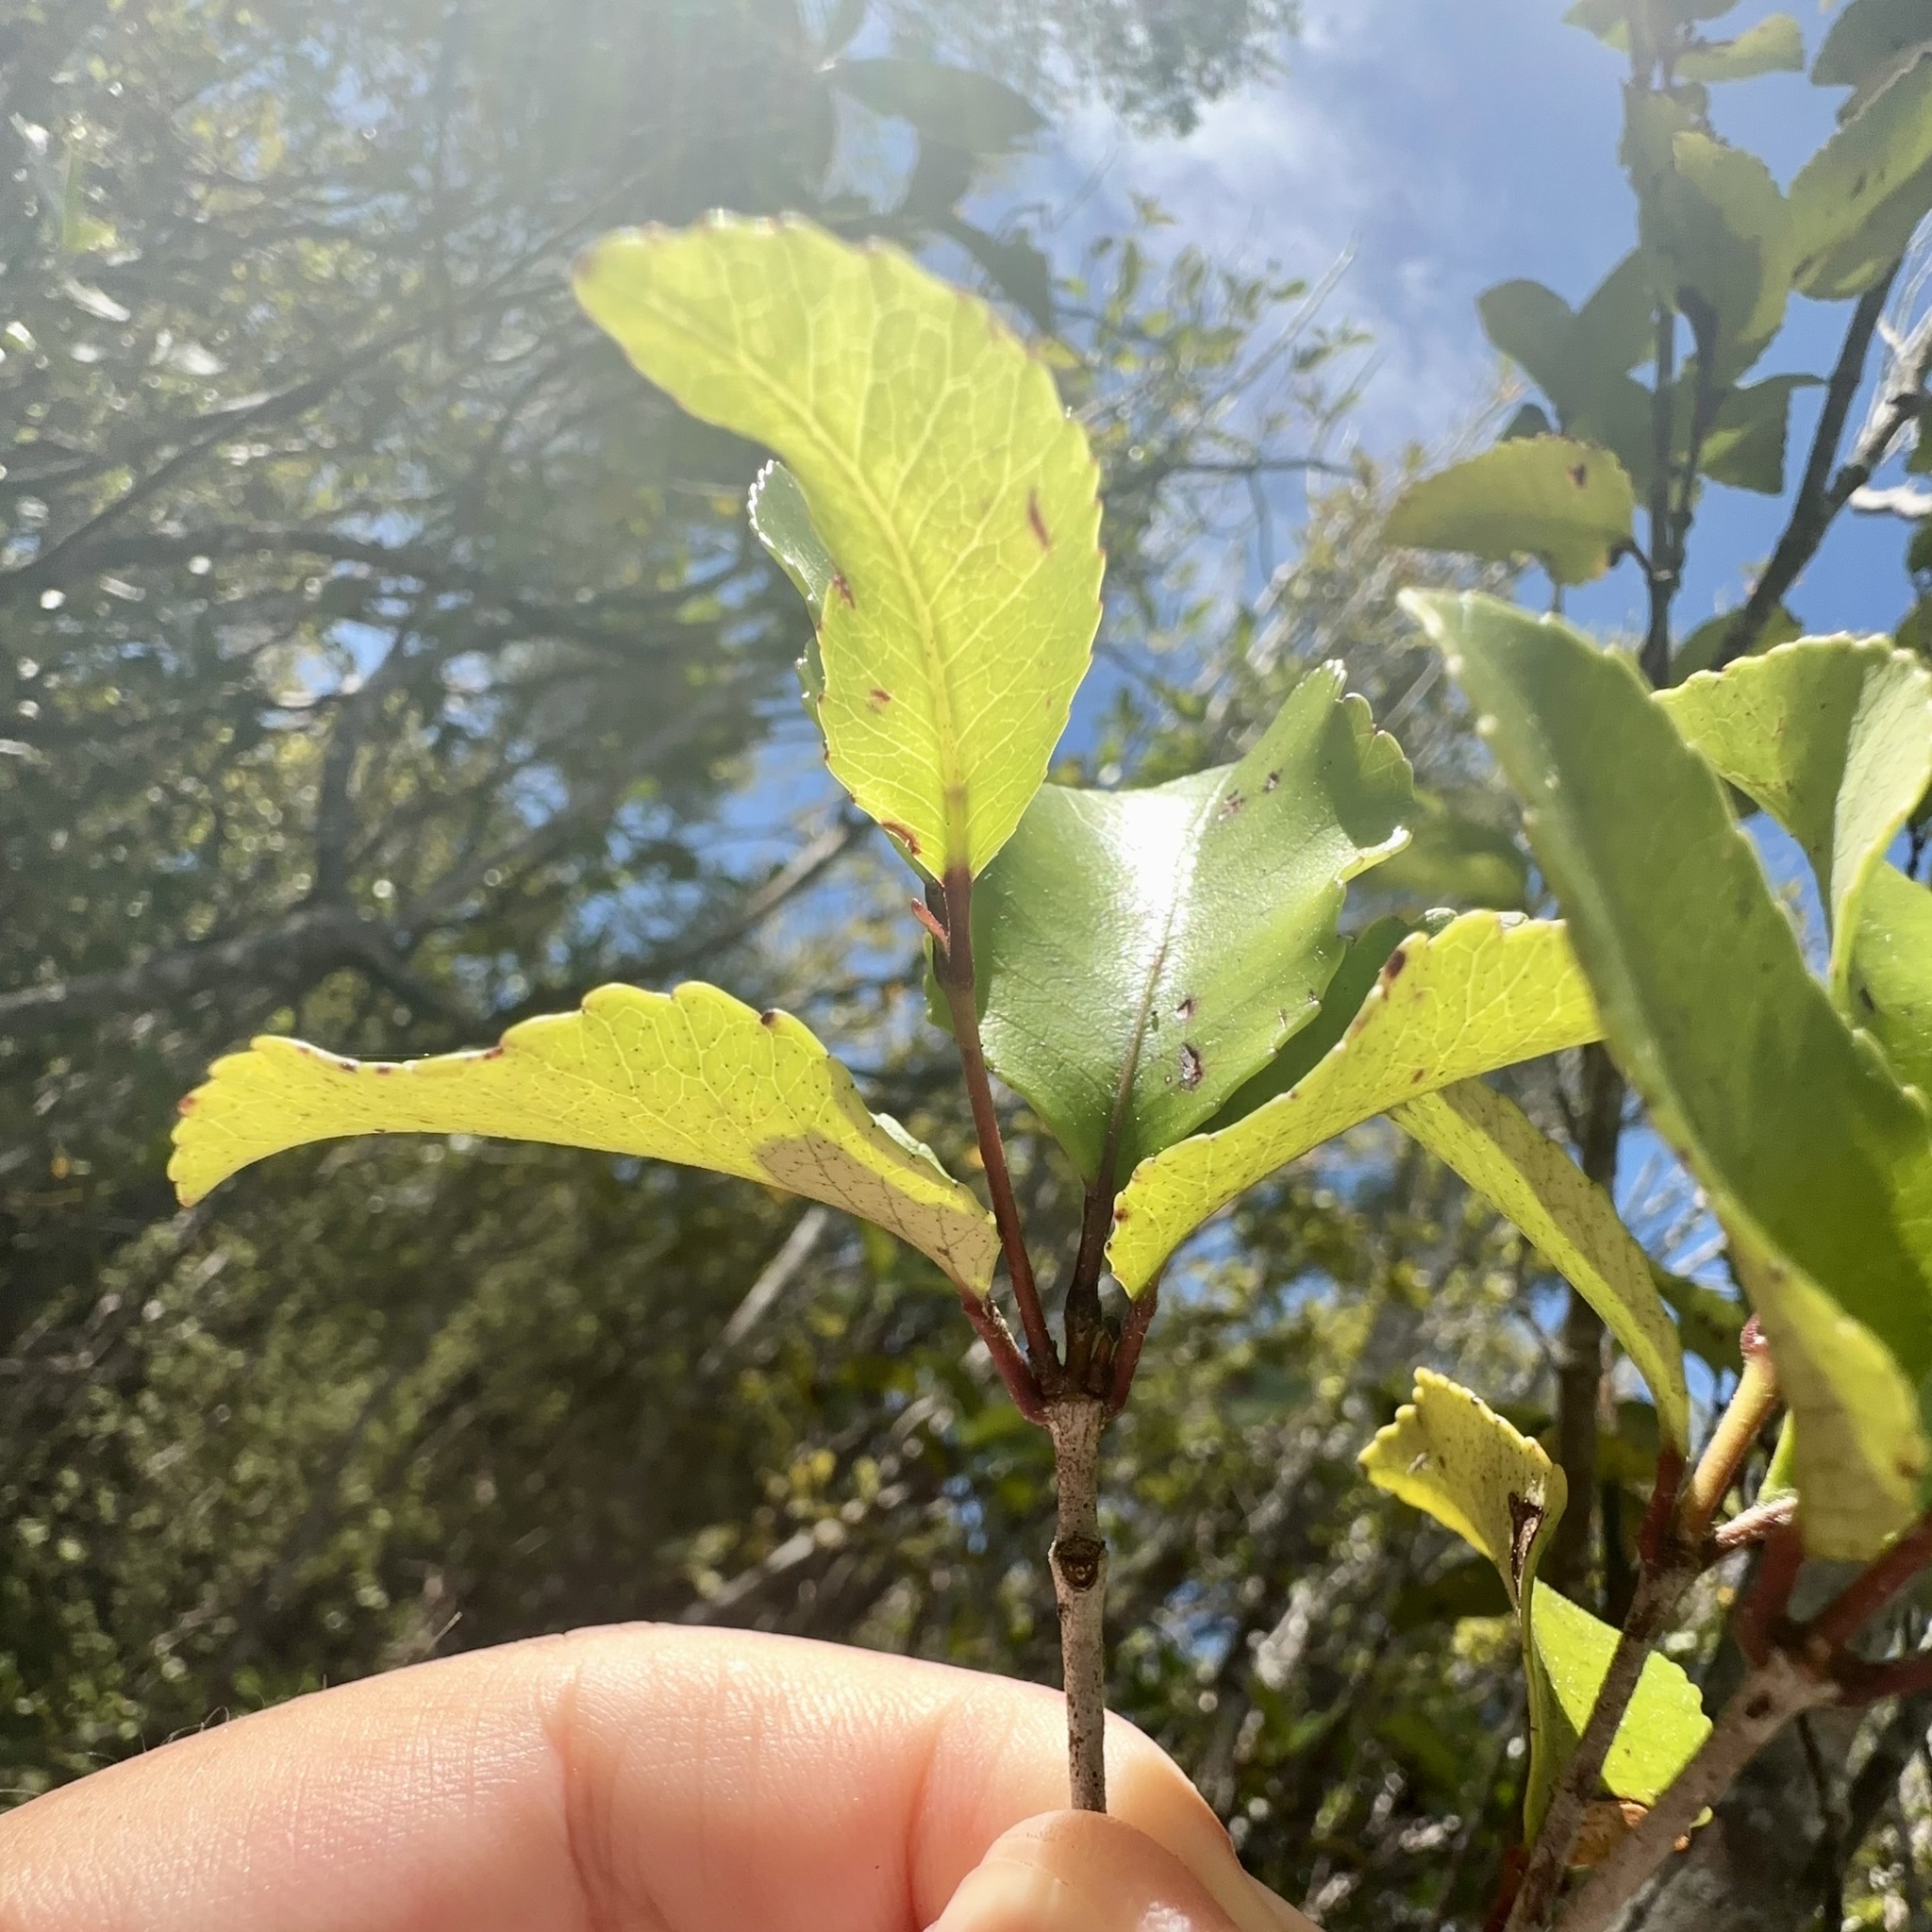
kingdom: Plantae
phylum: Tracheophyta
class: Magnoliopsida
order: Oxalidales
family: Cunoniaceae
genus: Pterophylla
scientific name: Pterophylla racemosa
